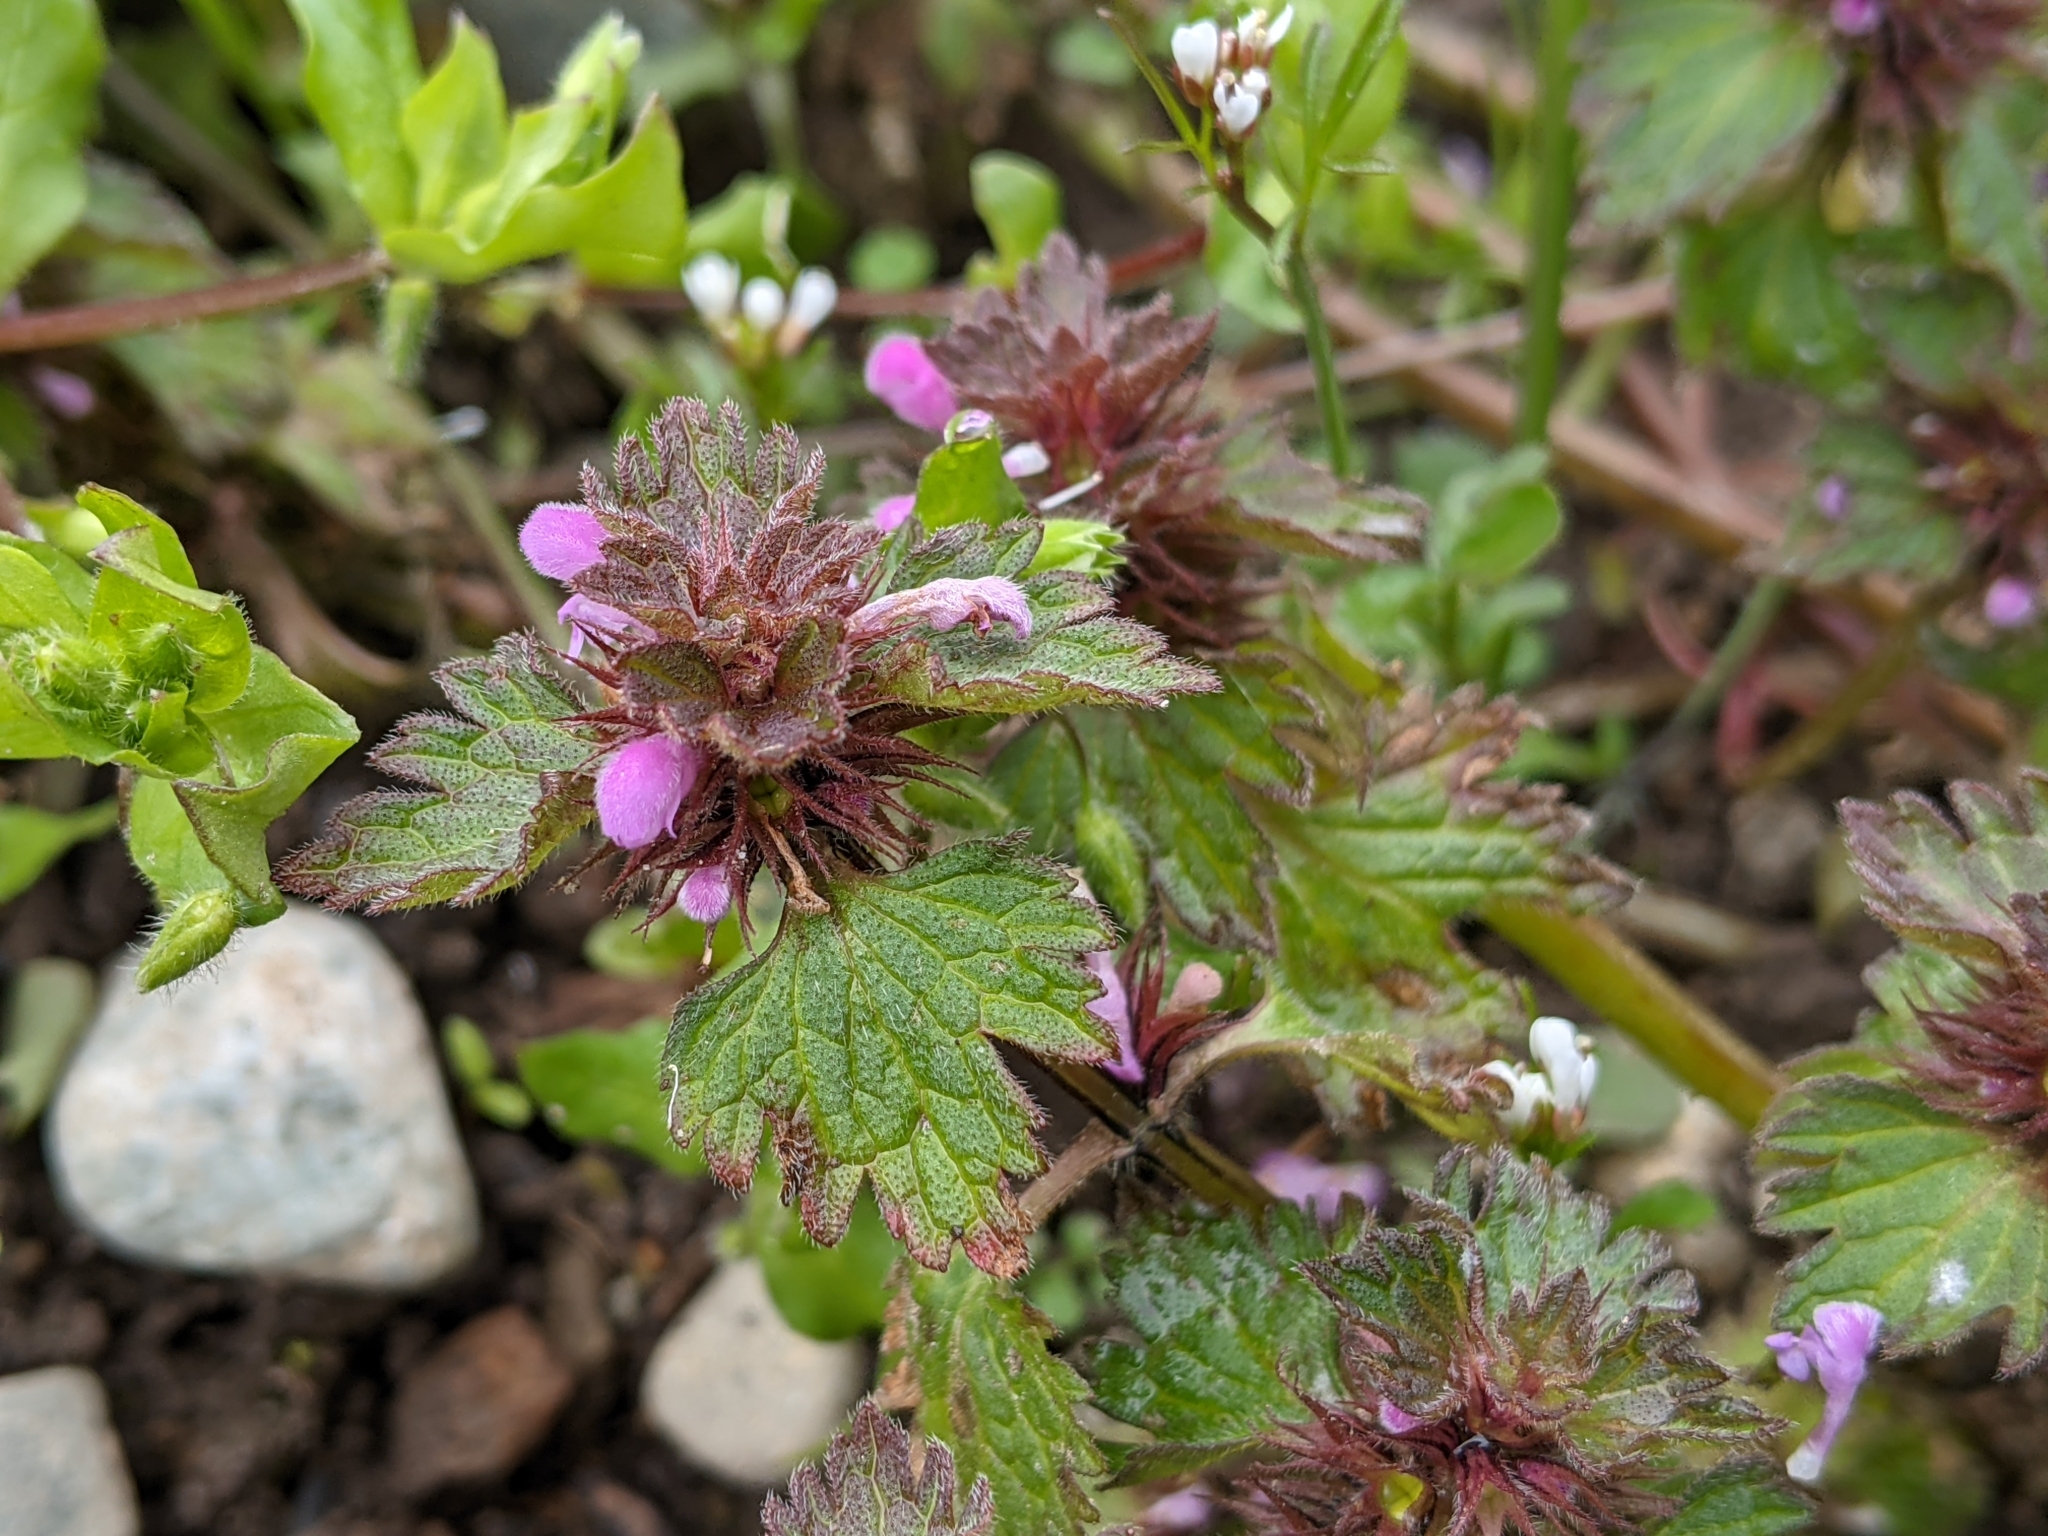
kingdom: Plantae
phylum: Tracheophyta
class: Magnoliopsida
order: Lamiales
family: Lamiaceae
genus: Lamium
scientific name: Lamium hybridum
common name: Cut-leaved dead-nettle
